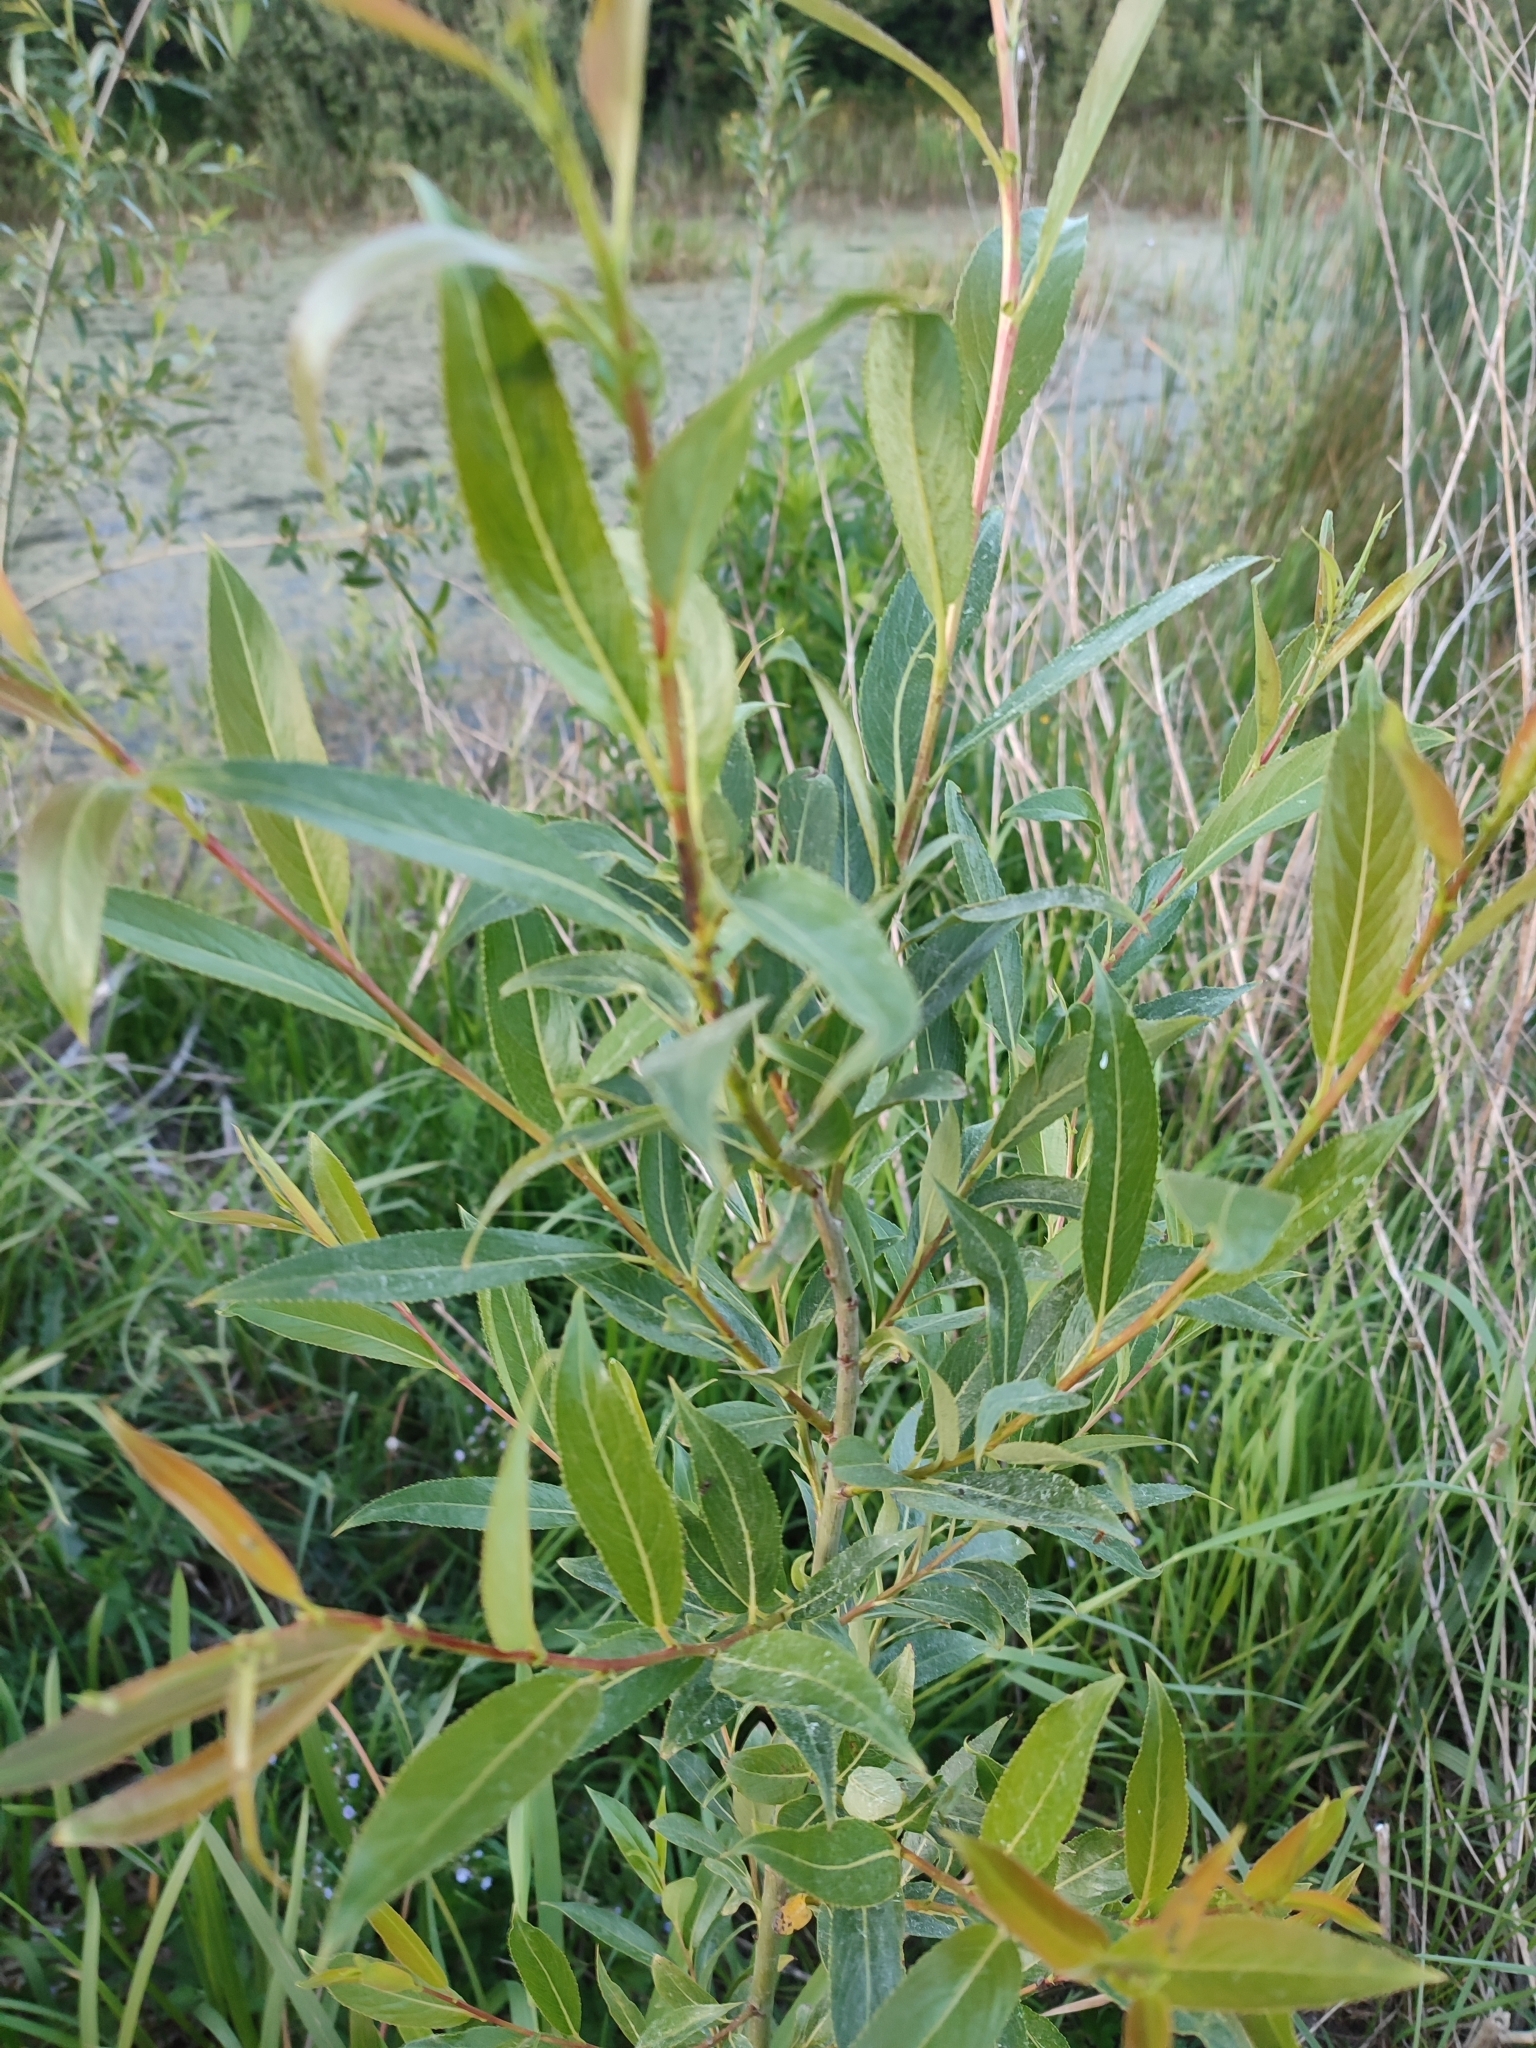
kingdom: Plantae
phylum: Tracheophyta
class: Magnoliopsida
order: Malpighiales
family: Salicaceae
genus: Salix
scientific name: Salix triandra
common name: Almond willow
